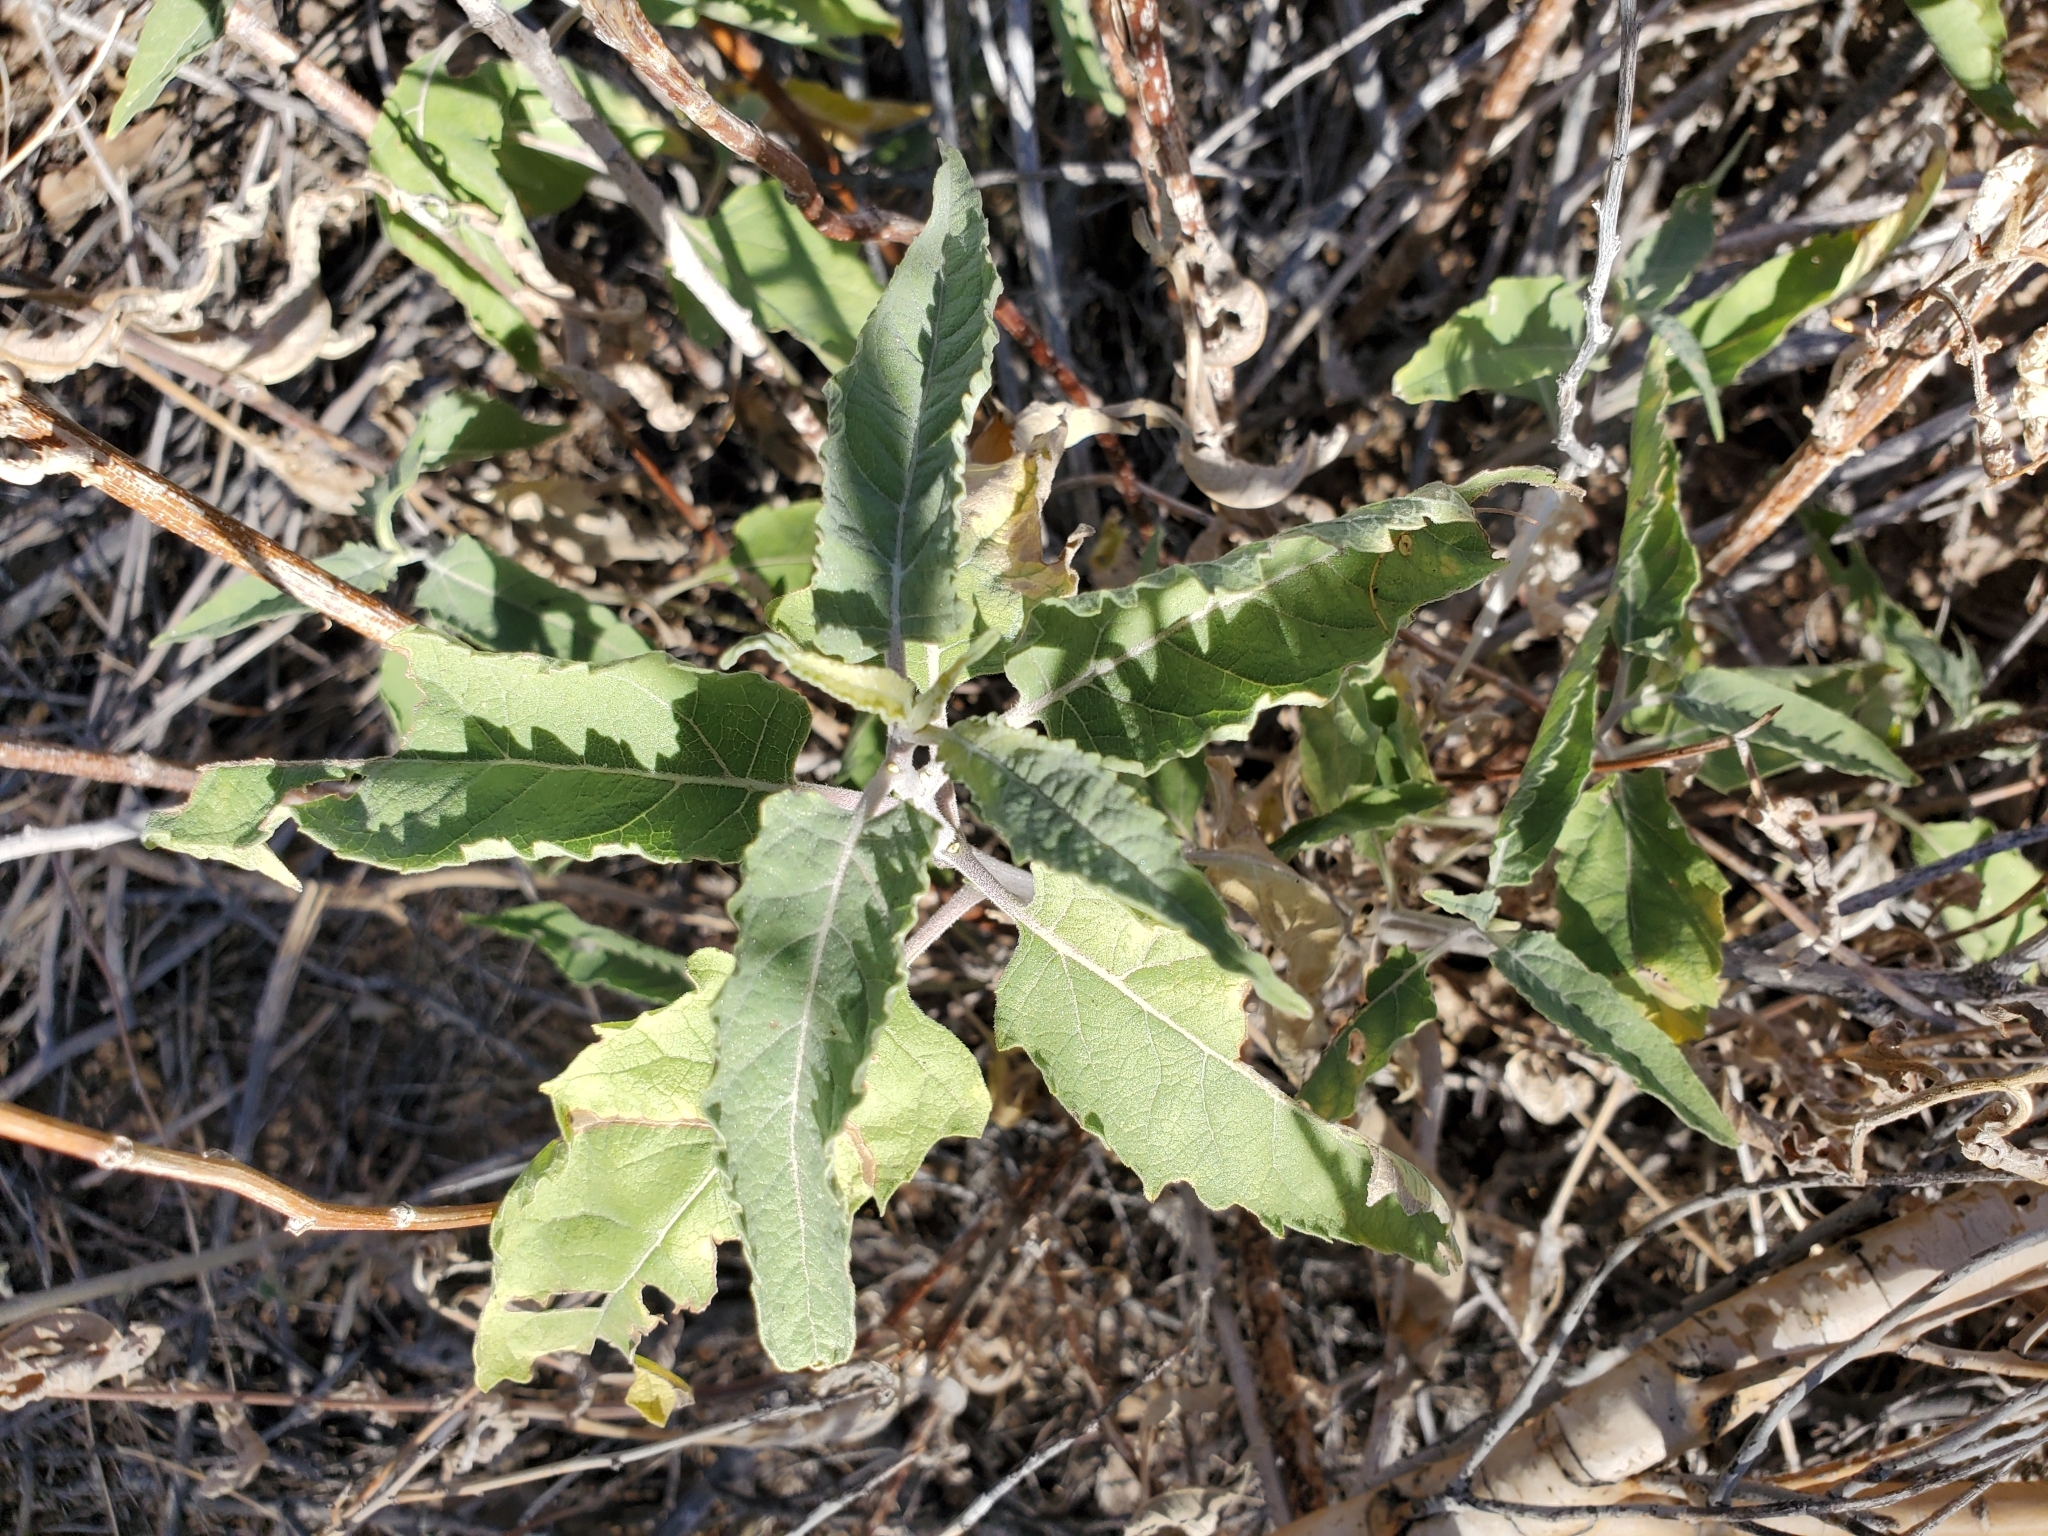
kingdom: Plantae
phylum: Tracheophyta
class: Magnoliopsida
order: Asterales
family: Asteraceae
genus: Ambrosia
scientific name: Ambrosia ambrosioides
